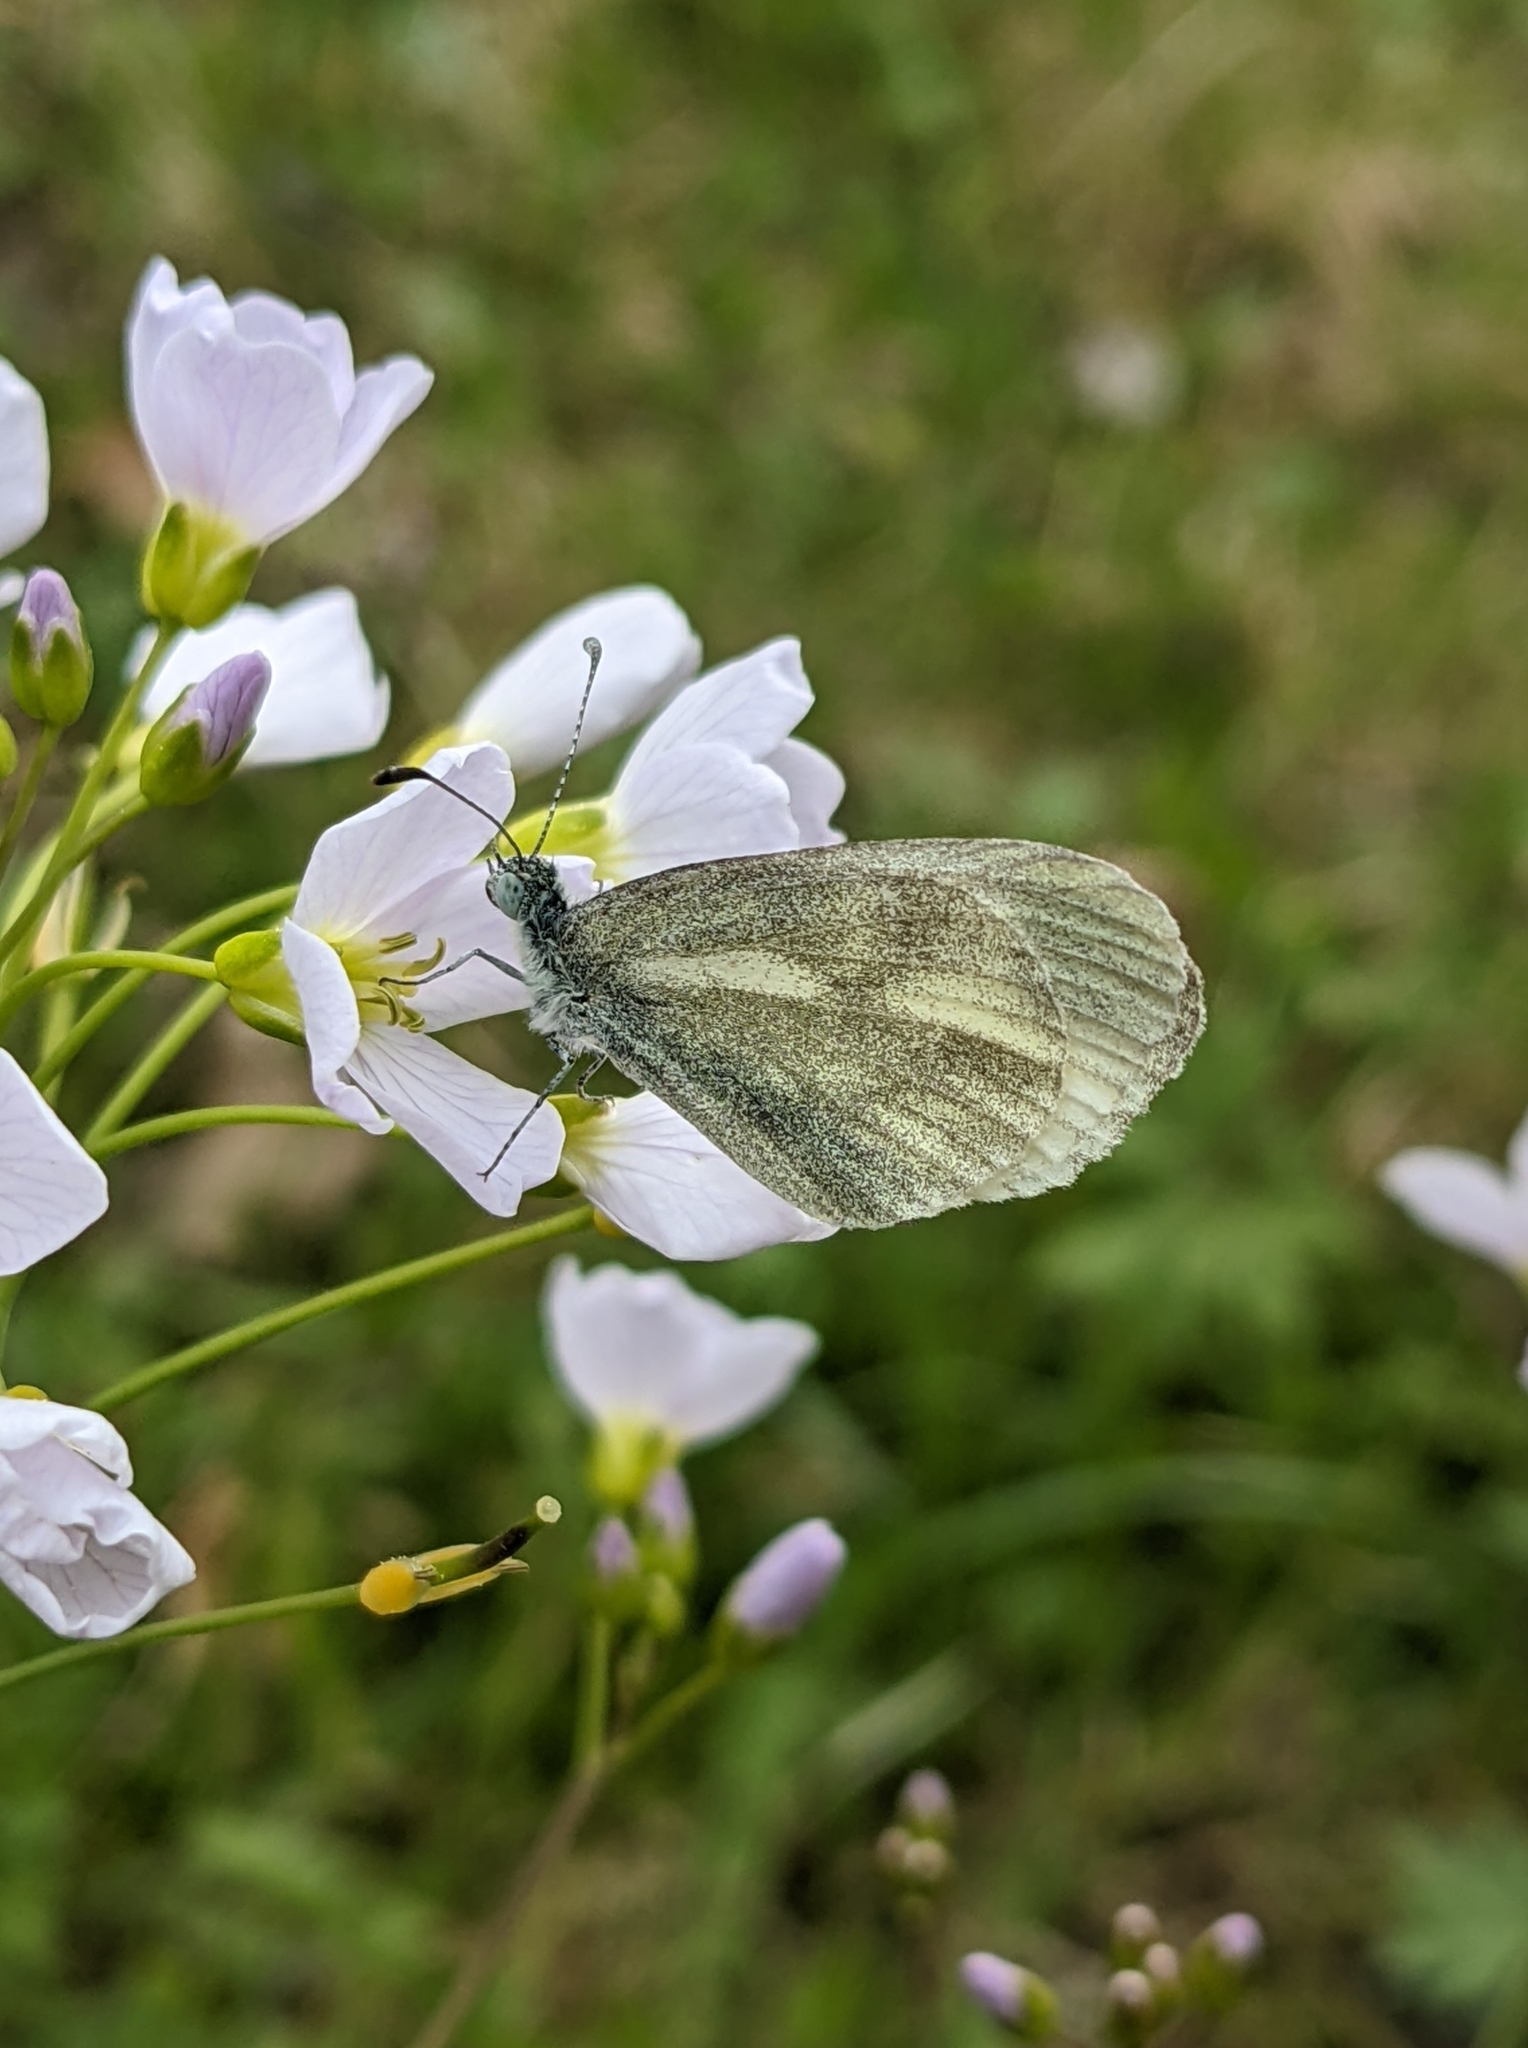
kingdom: Animalia
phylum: Arthropoda
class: Insecta
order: Lepidoptera
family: Pieridae
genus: Leptidea
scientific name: Leptidea
